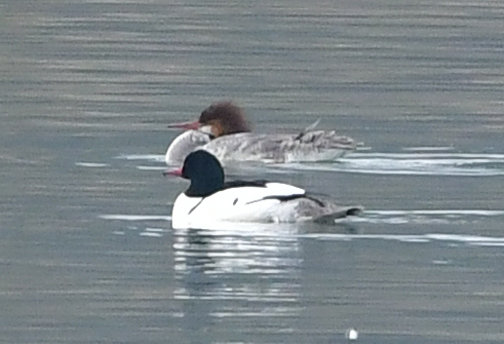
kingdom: Animalia
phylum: Chordata
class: Aves
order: Anseriformes
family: Anatidae
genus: Mergus
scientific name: Mergus merganser
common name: Common merganser
